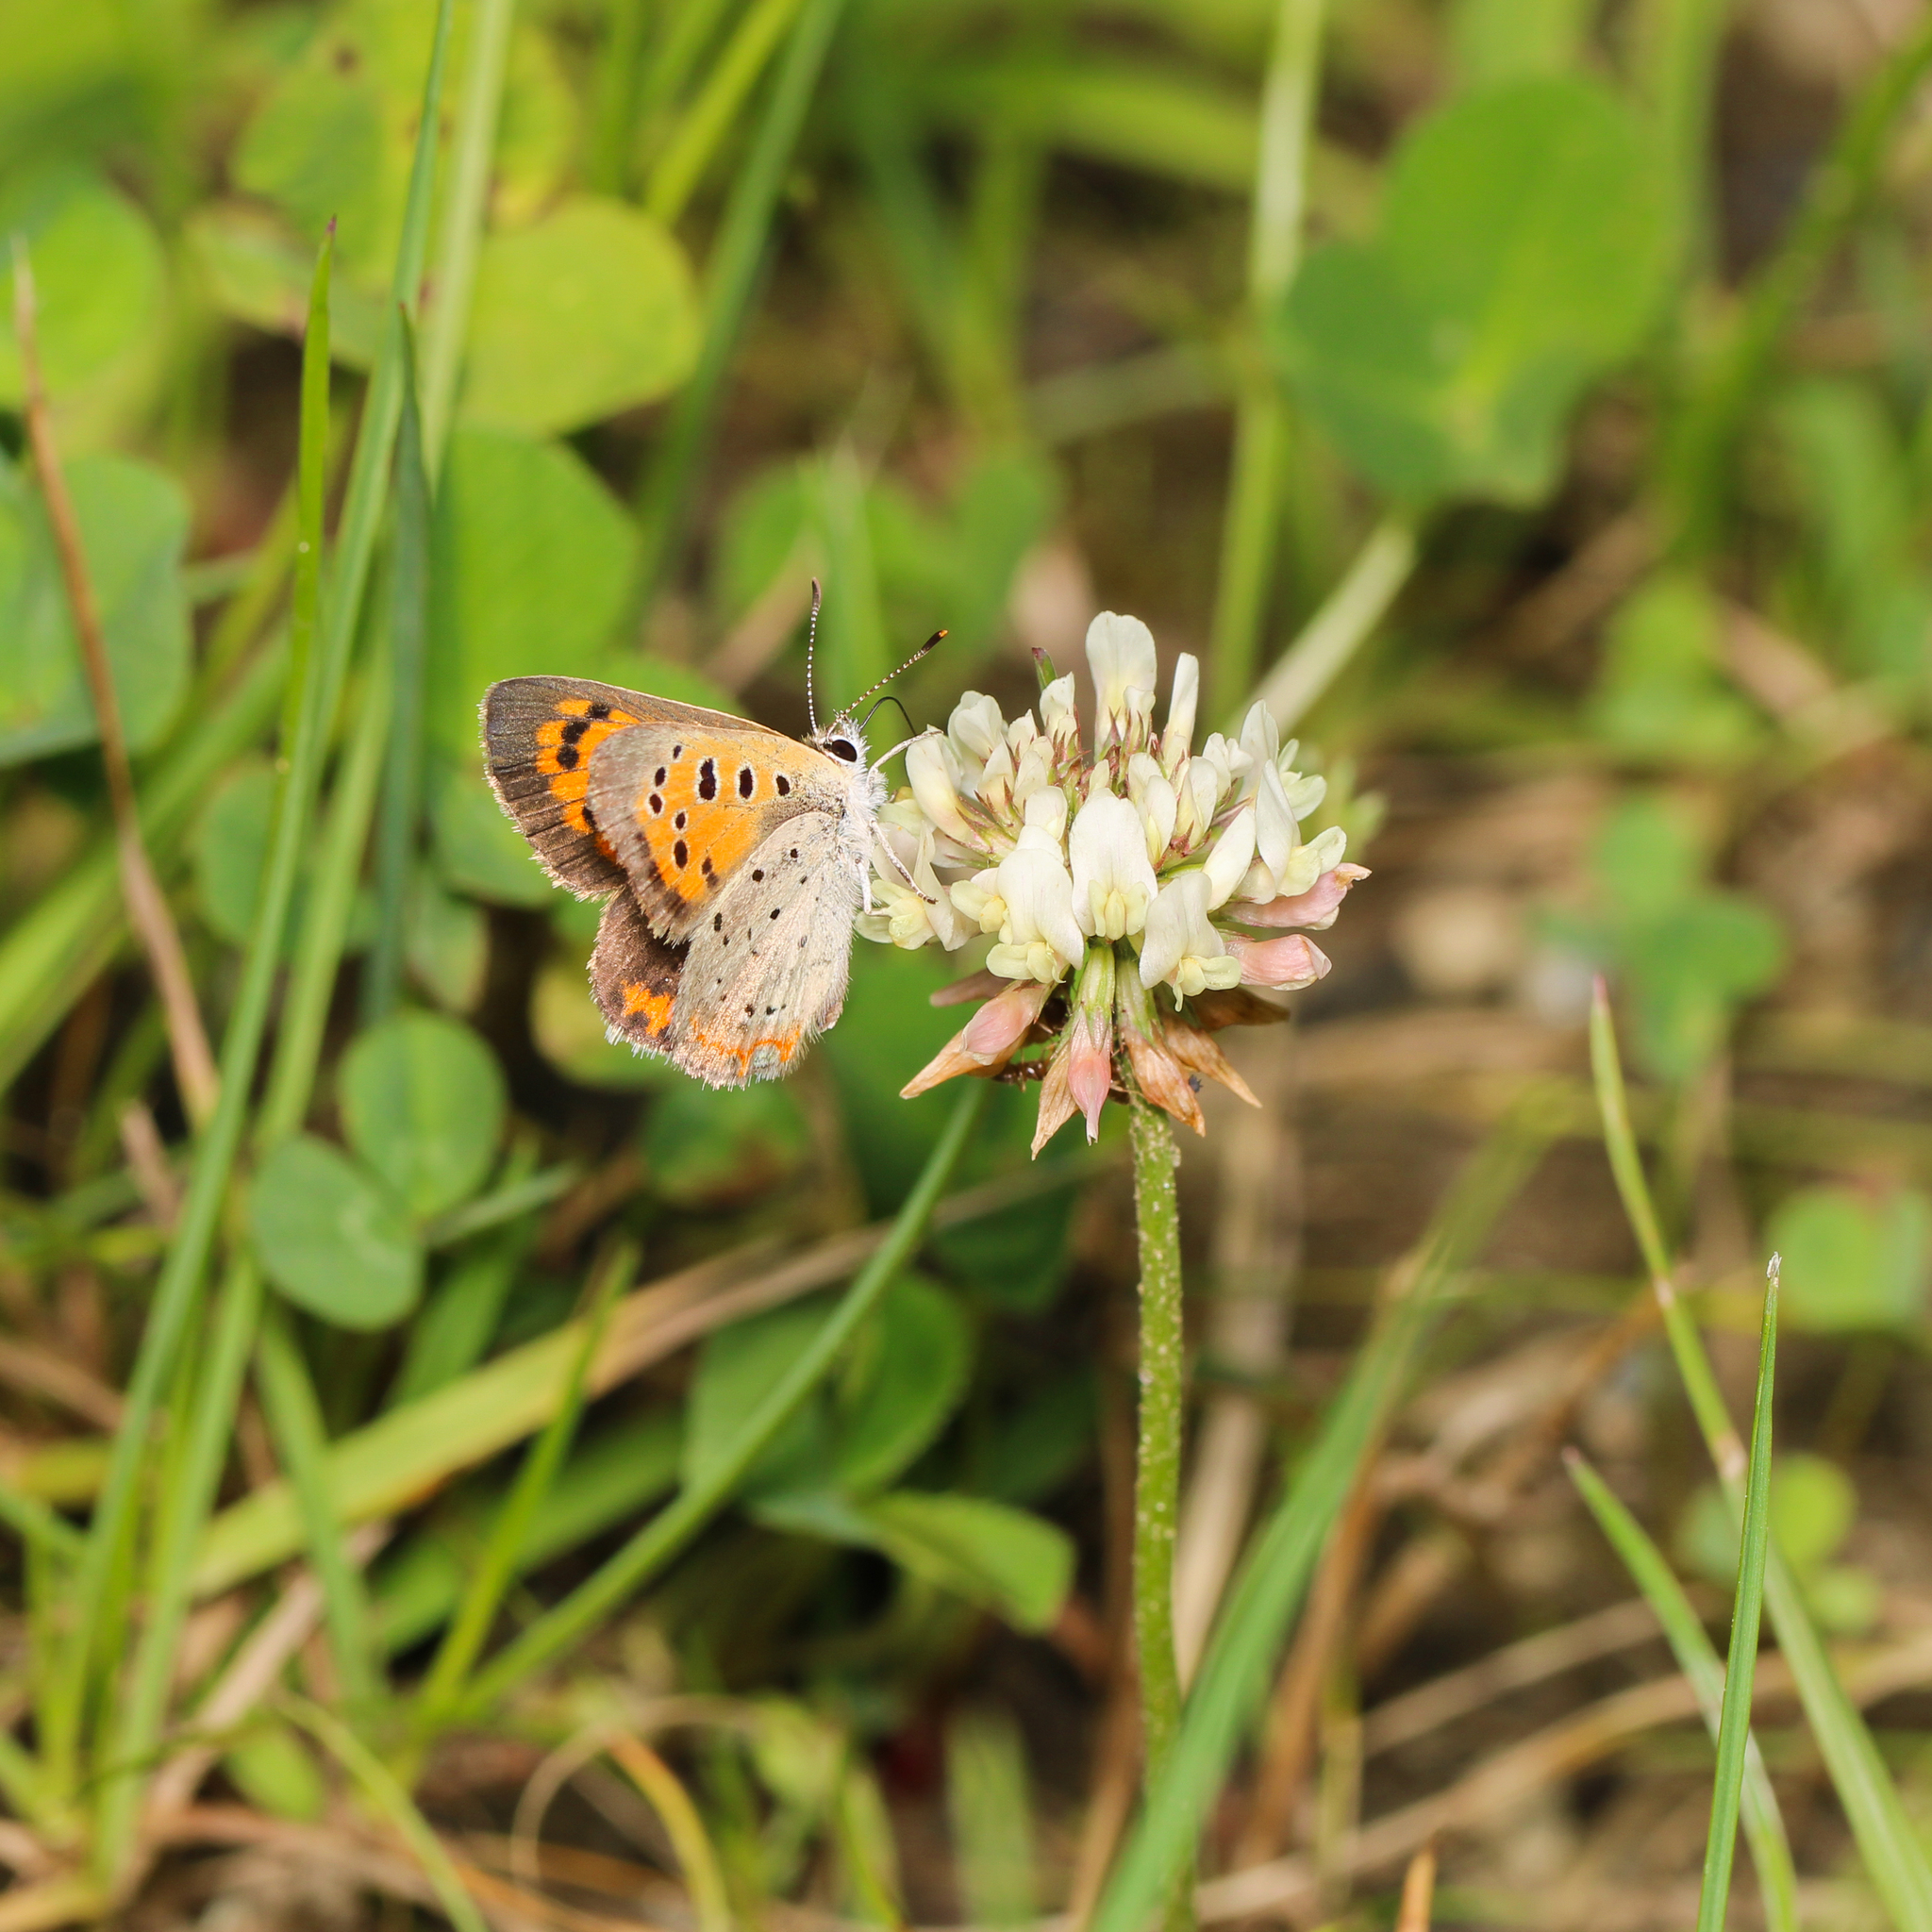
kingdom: Animalia
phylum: Arthropoda
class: Insecta
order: Lepidoptera
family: Lycaenidae
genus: Lycaena
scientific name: Lycaena hypophlaeas
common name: American copper
